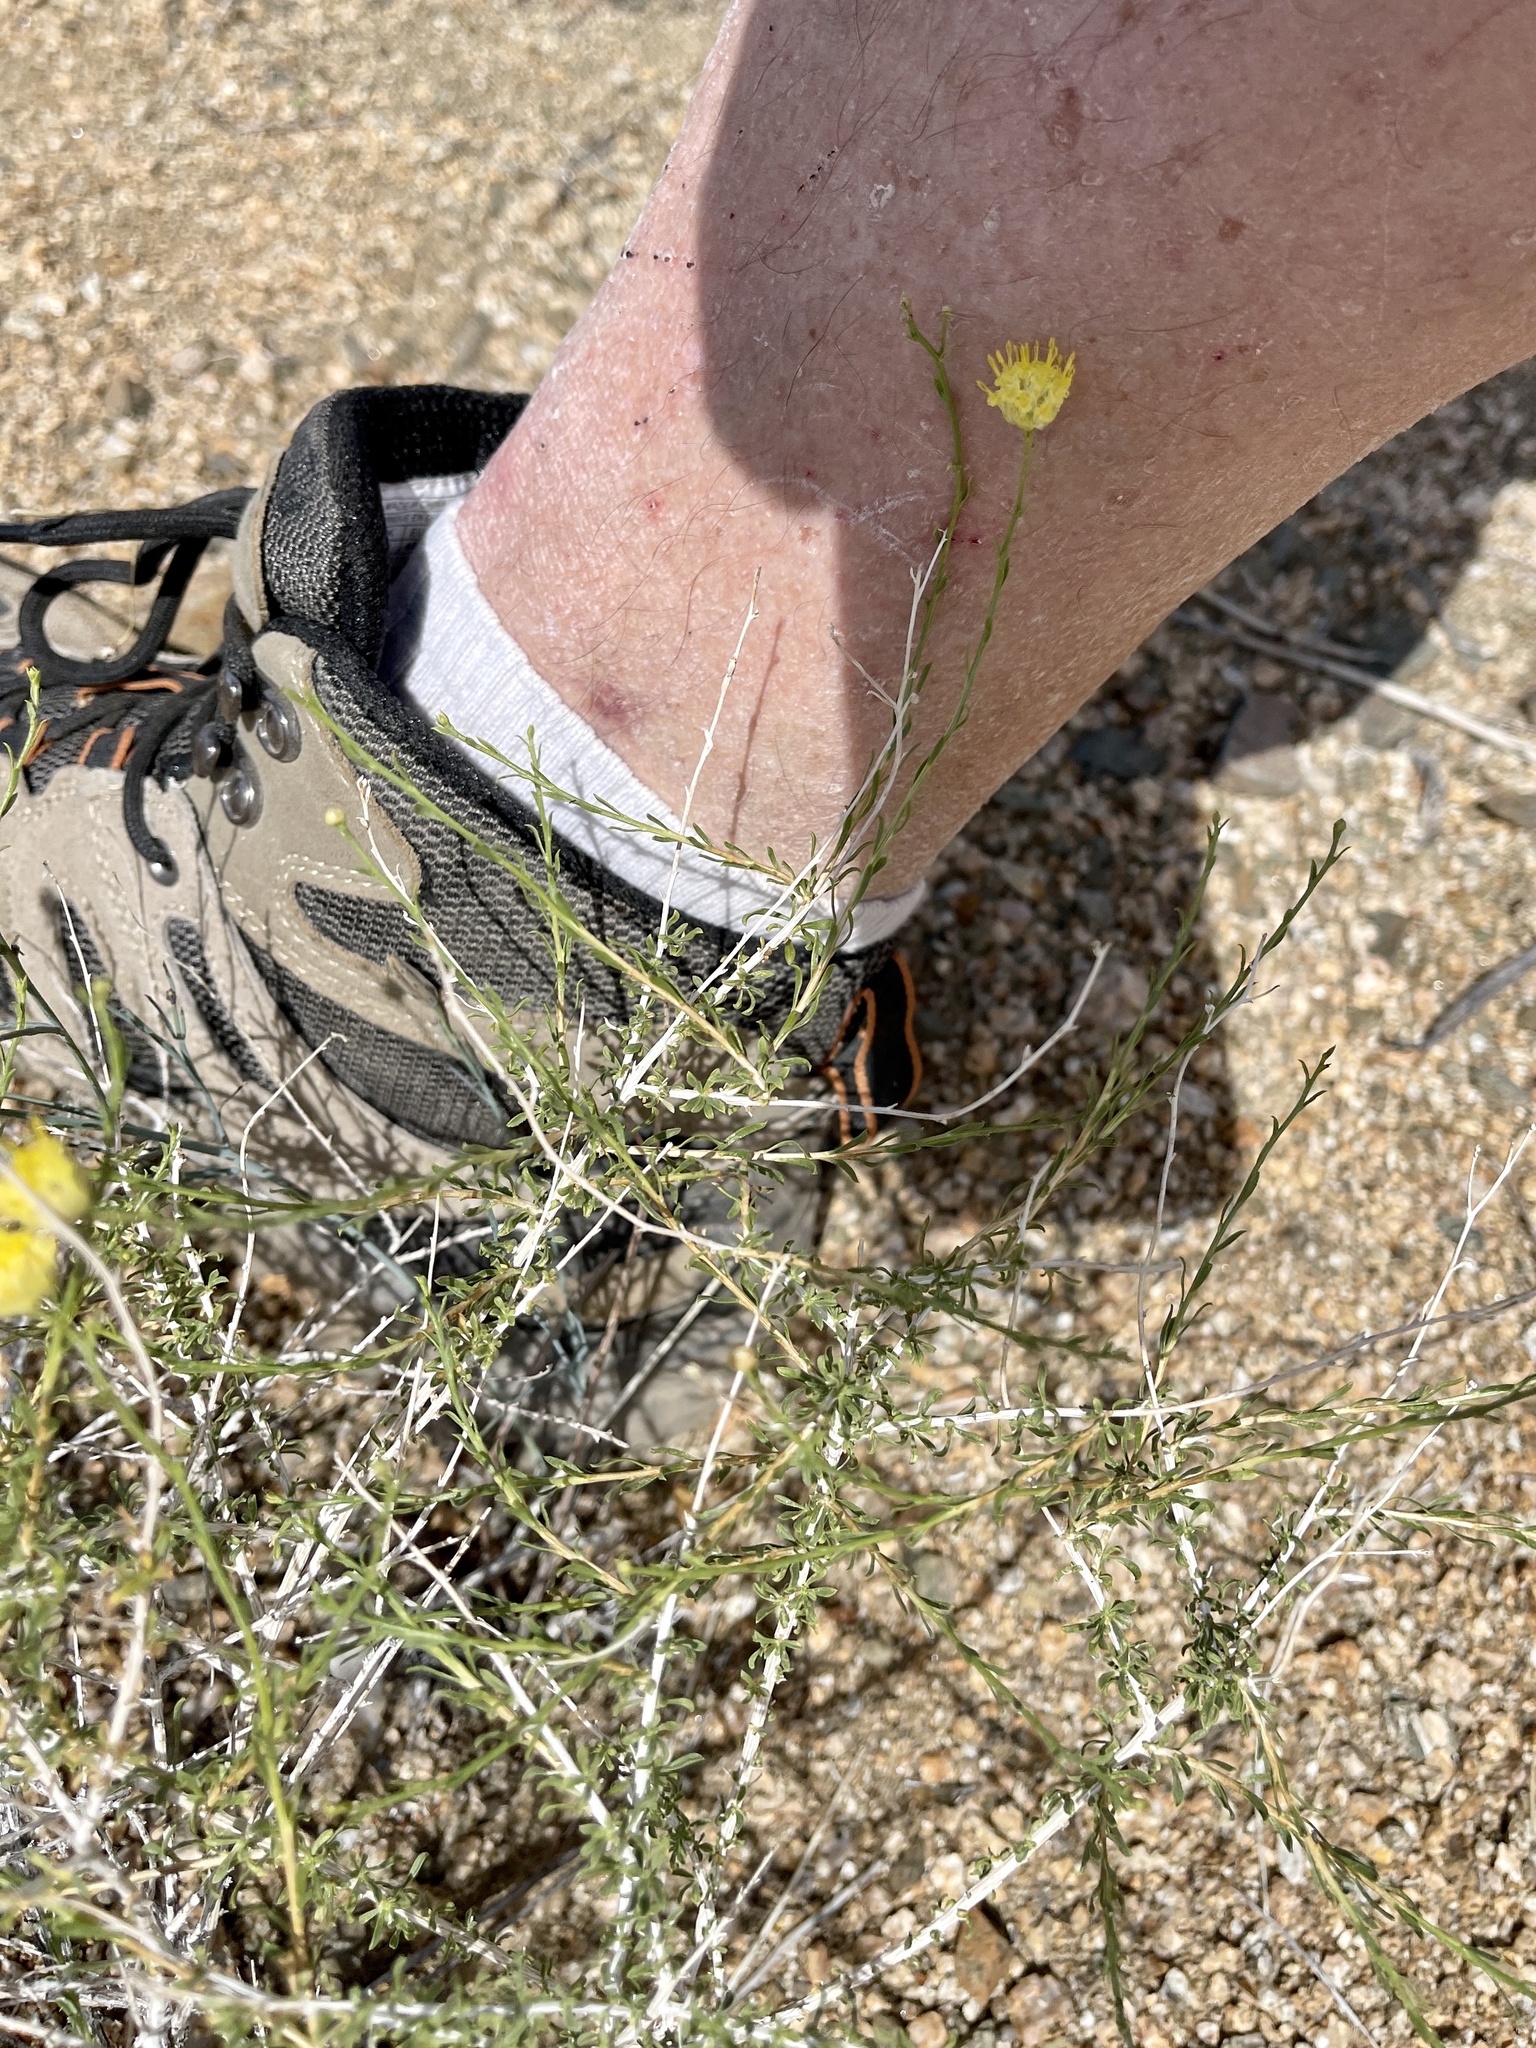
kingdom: Plantae
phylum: Tracheophyta
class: Magnoliopsida
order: Asterales
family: Asteraceae
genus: Acamptopappus
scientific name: Acamptopappus sphaerocephalus
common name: Goldenhead
